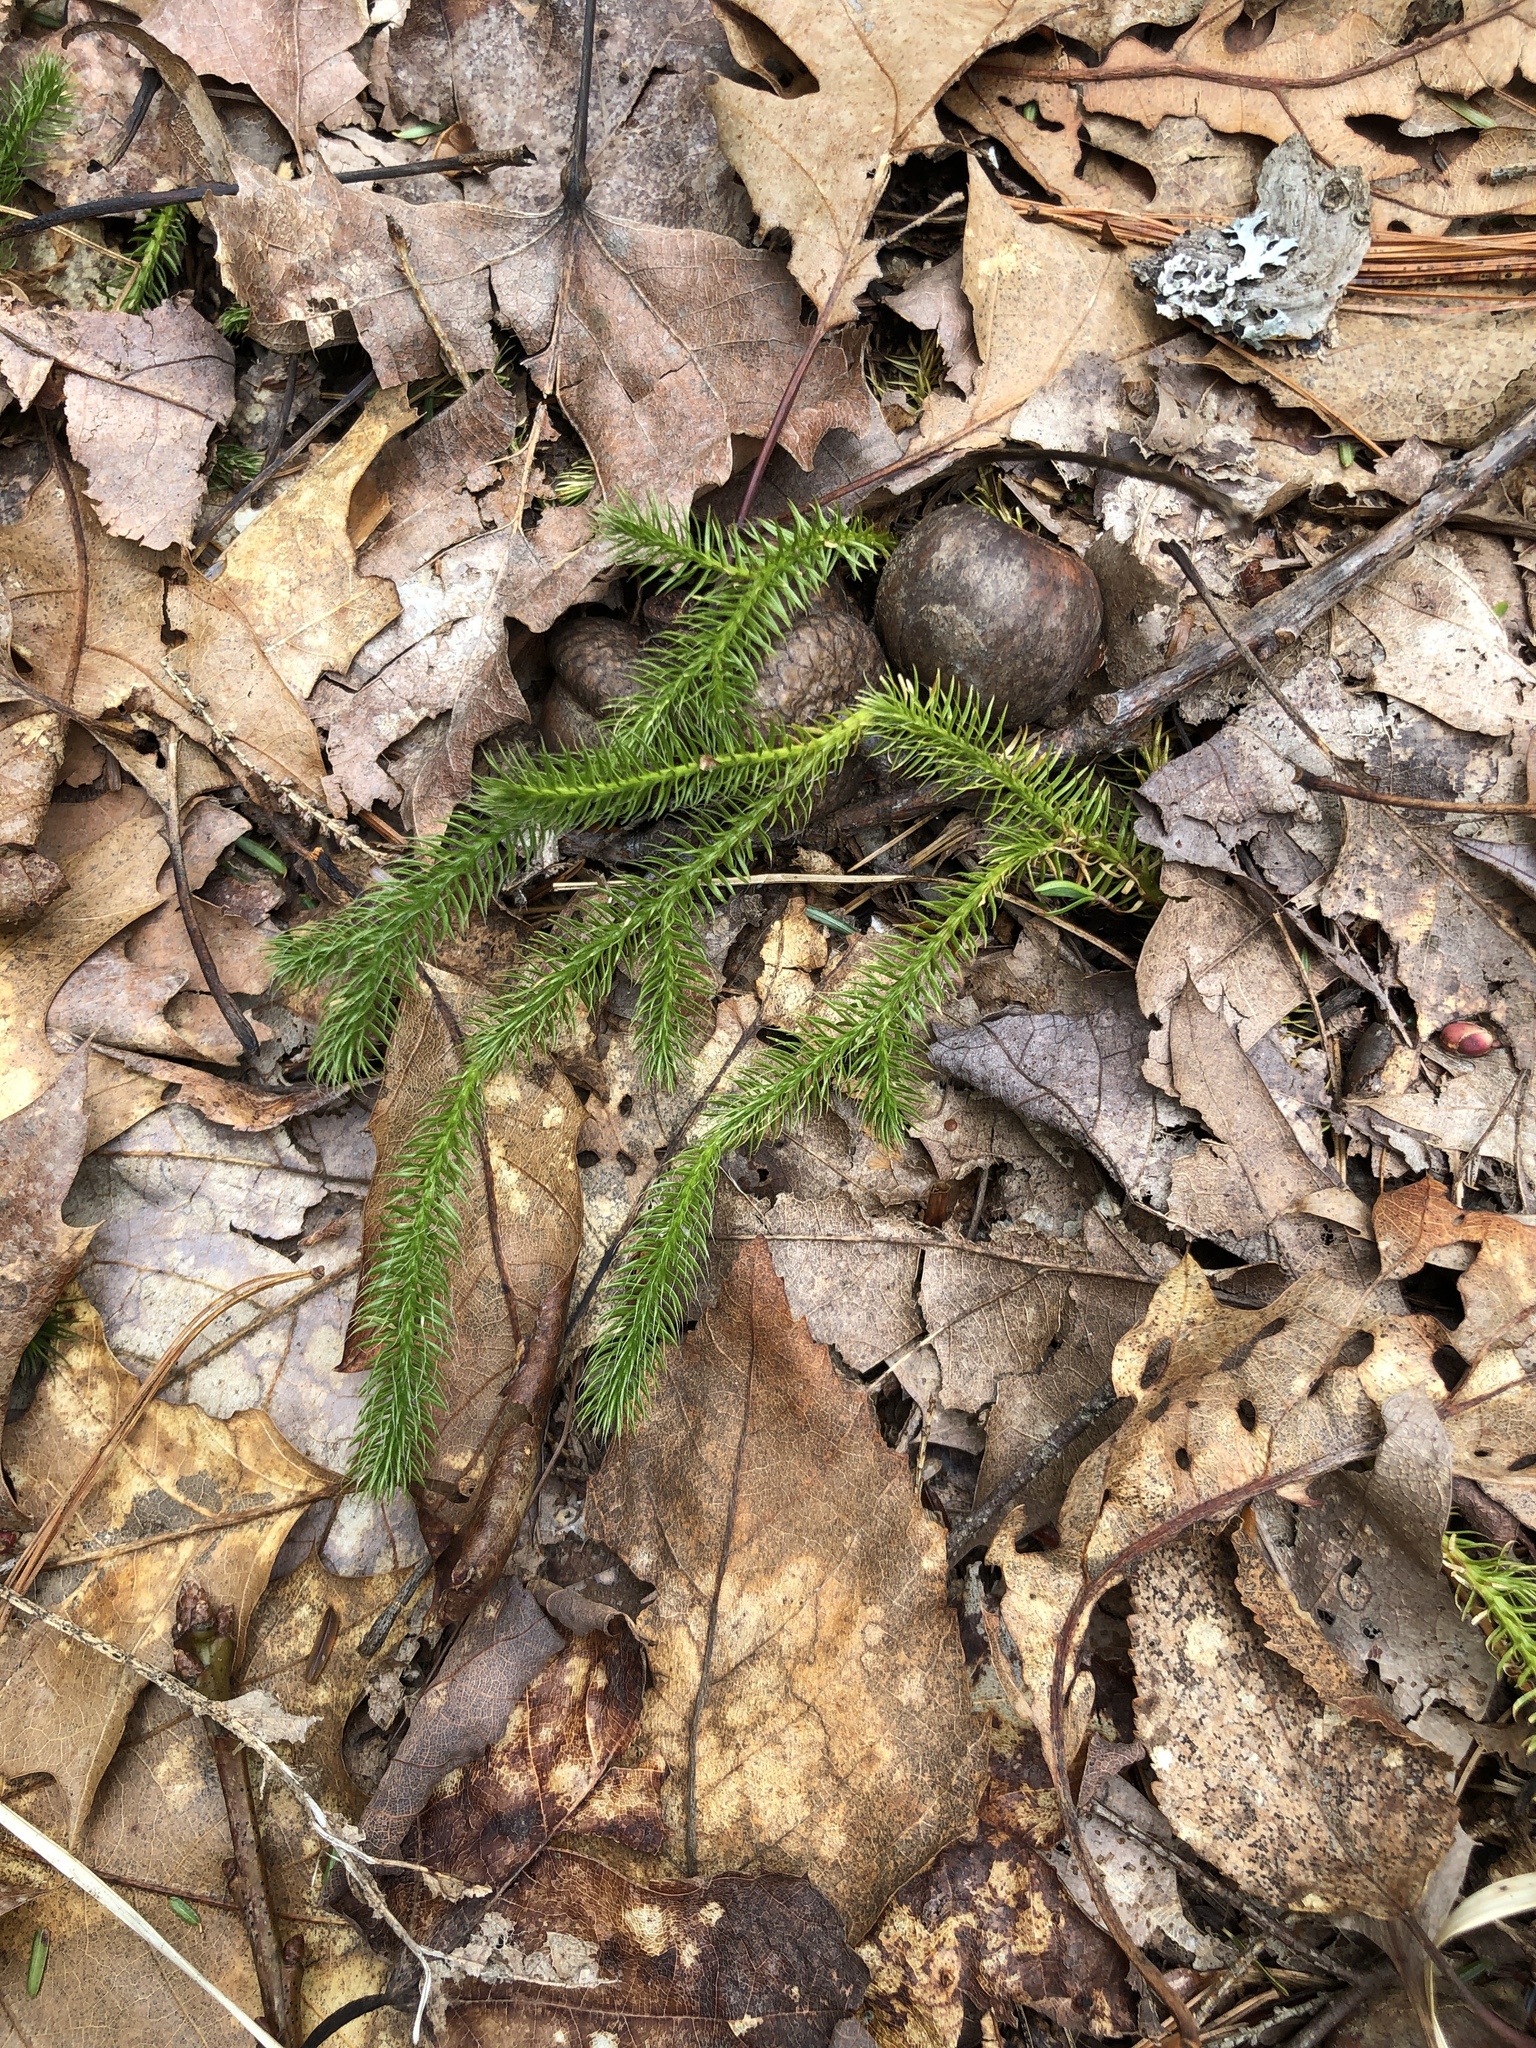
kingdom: Plantae
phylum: Tracheophyta
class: Lycopodiopsida
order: Lycopodiales
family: Lycopodiaceae
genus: Lycopodium
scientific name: Lycopodium clavatum
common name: Stag's-horn clubmoss
